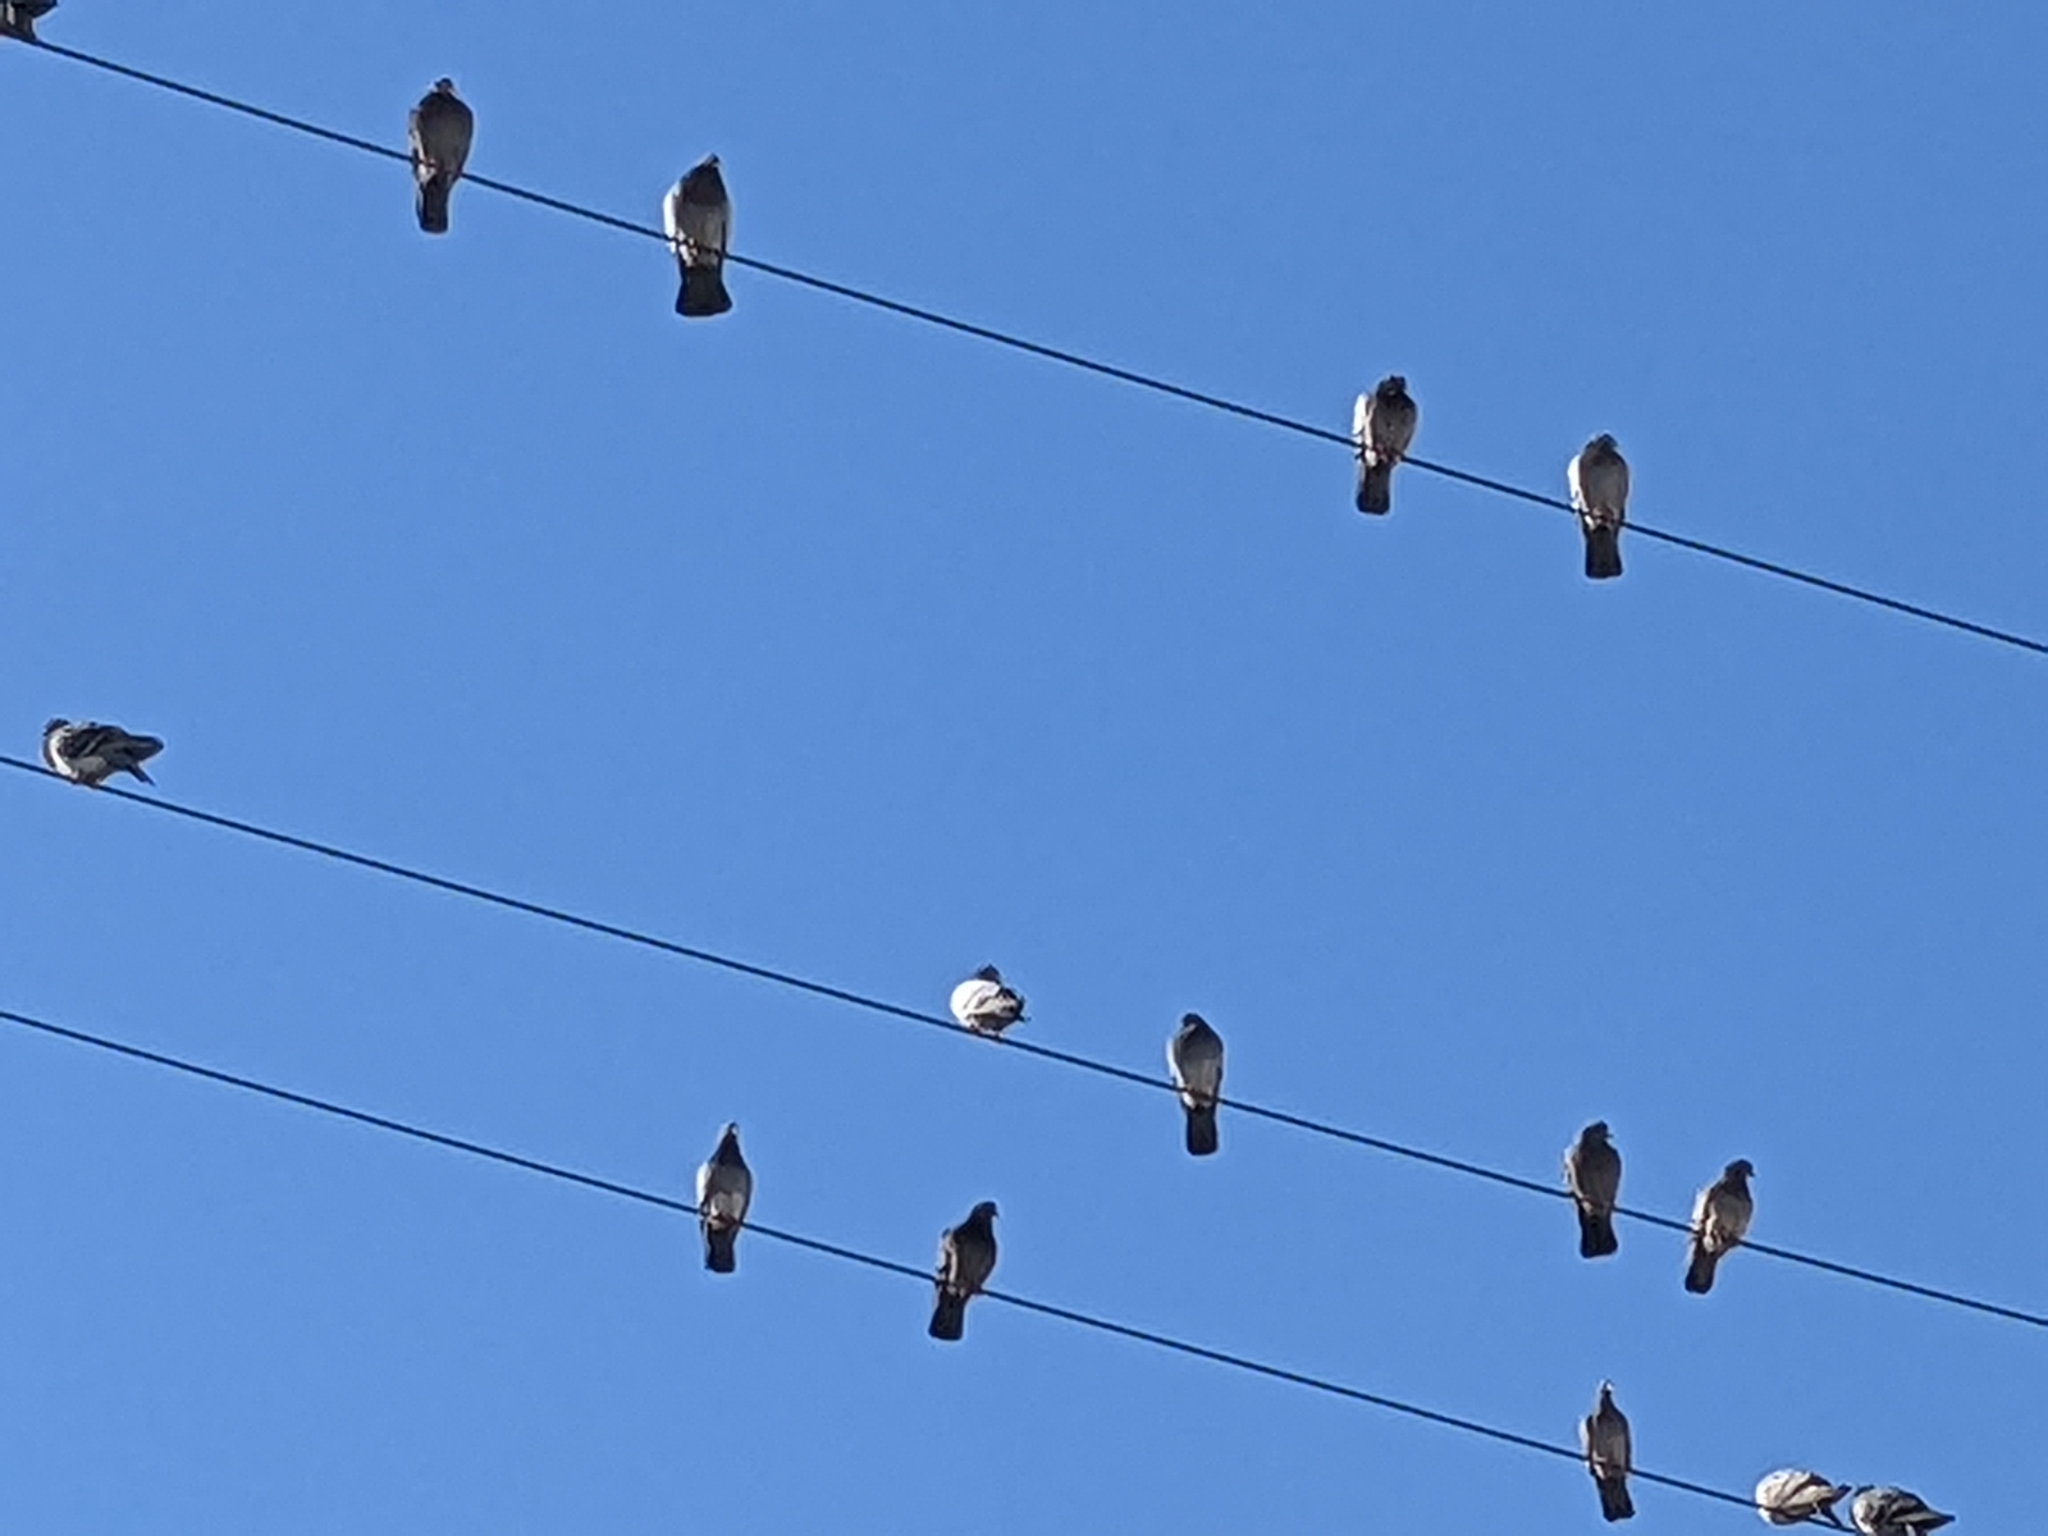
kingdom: Animalia
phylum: Chordata
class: Aves
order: Columbiformes
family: Columbidae
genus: Columba
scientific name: Columba livia
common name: Rock pigeon
